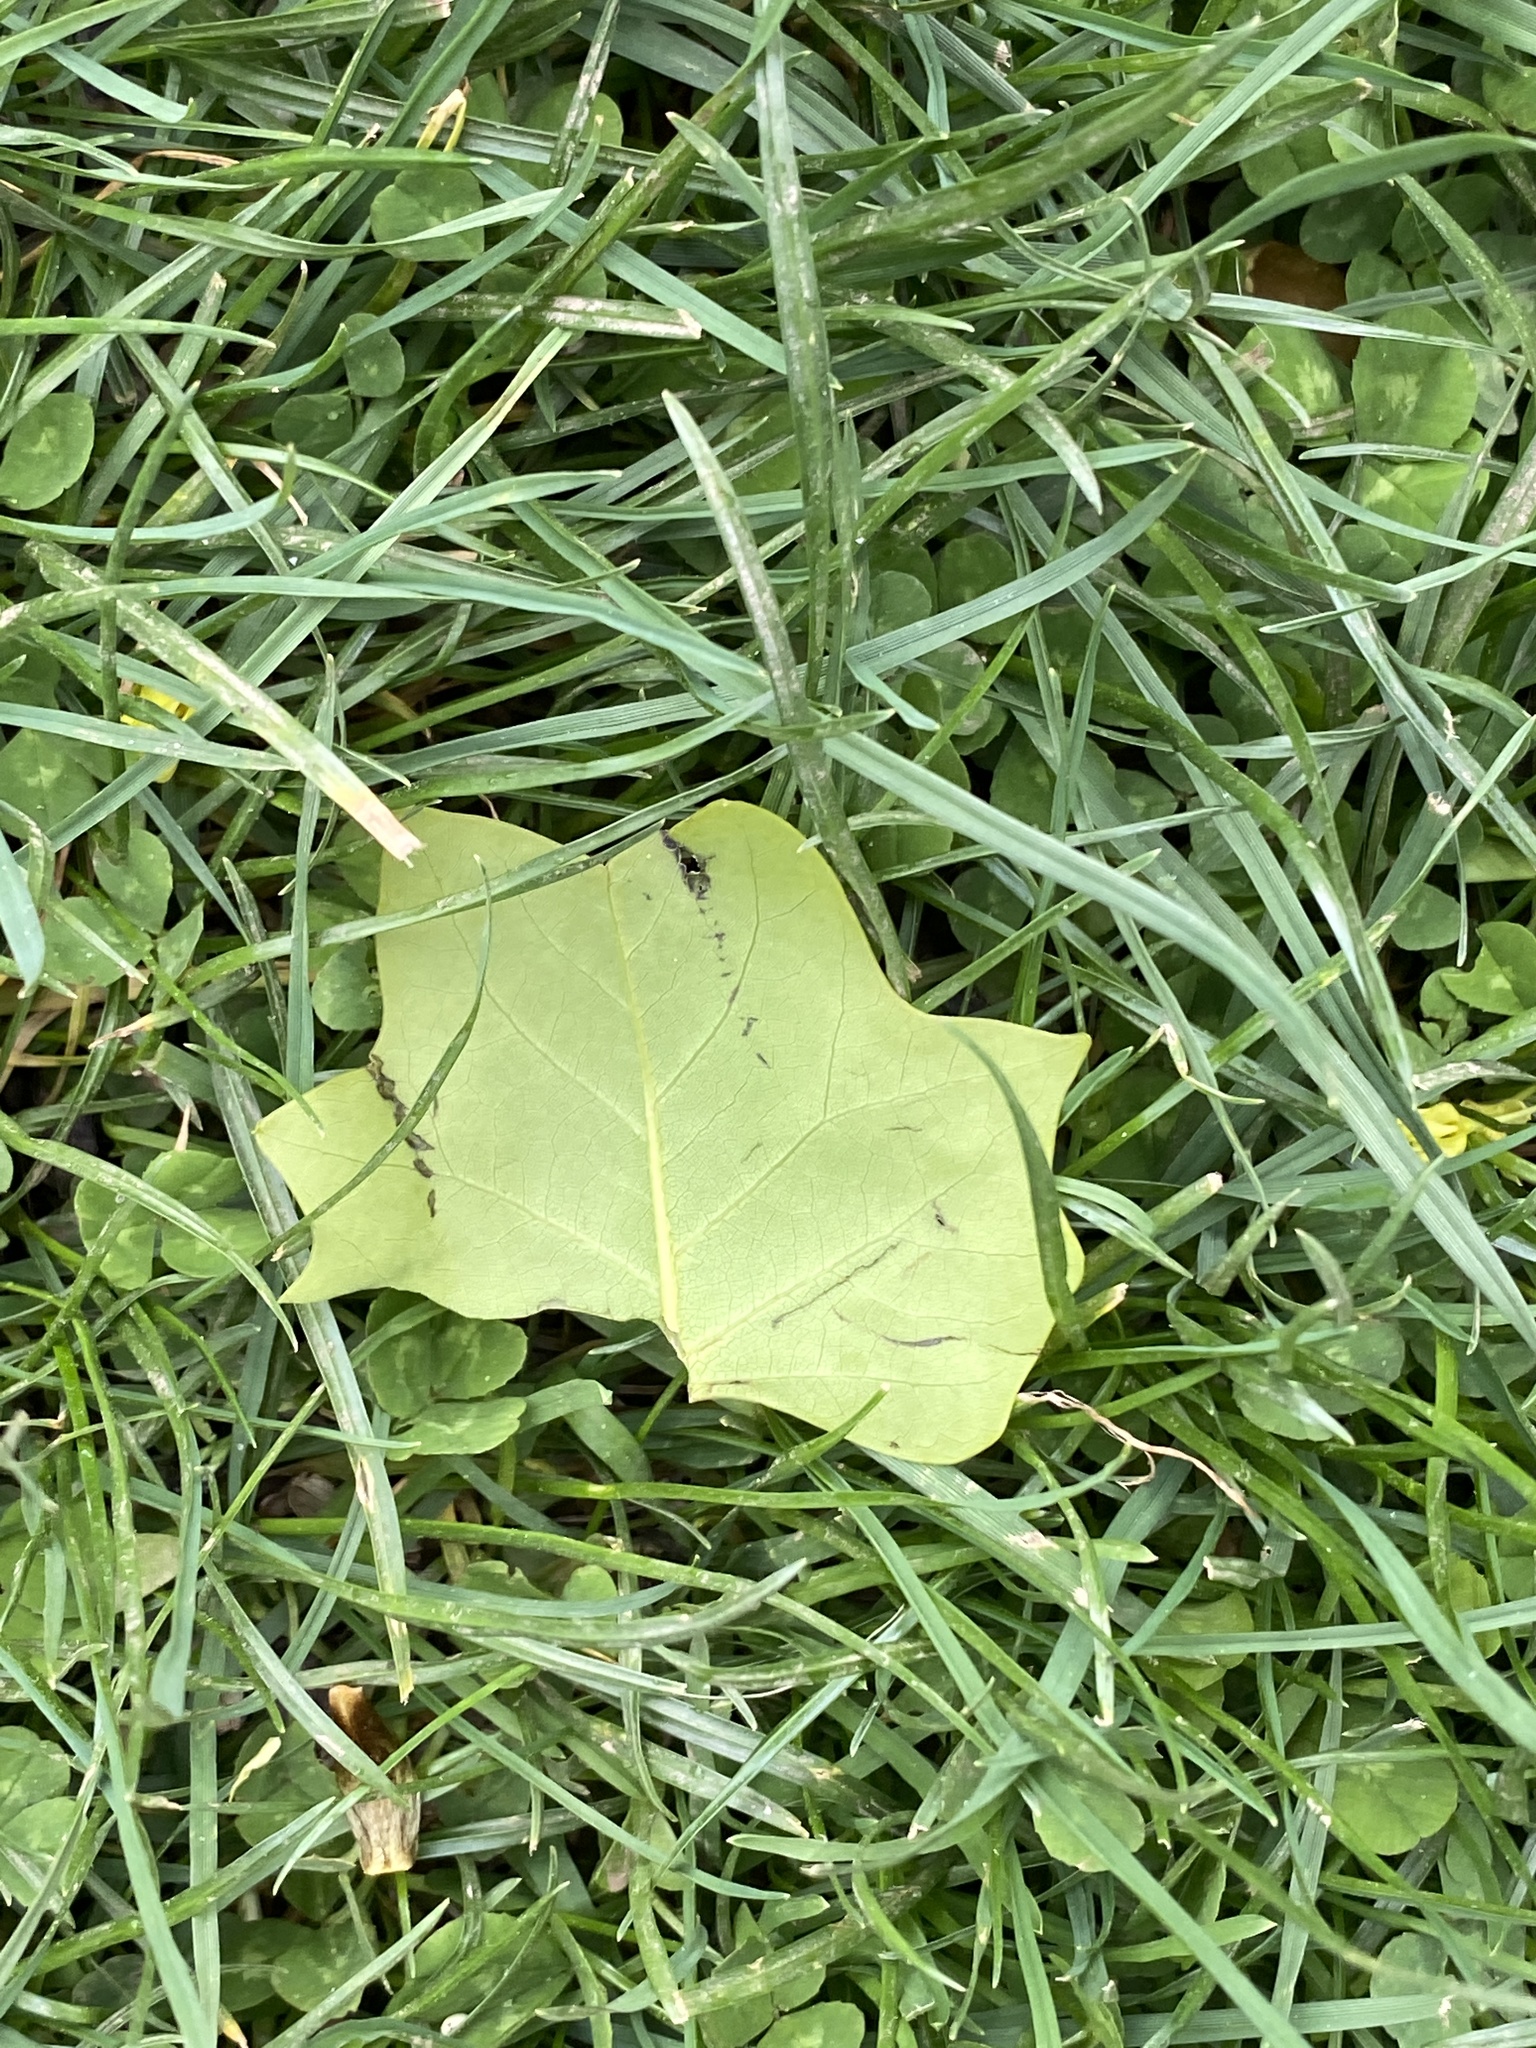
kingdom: Plantae
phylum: Tracheophyta
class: Magnoliopsida
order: Magnoliales
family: Magnoliaceae
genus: Liriodendron
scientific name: Liriodendron tulipifera
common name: Tulip tree
